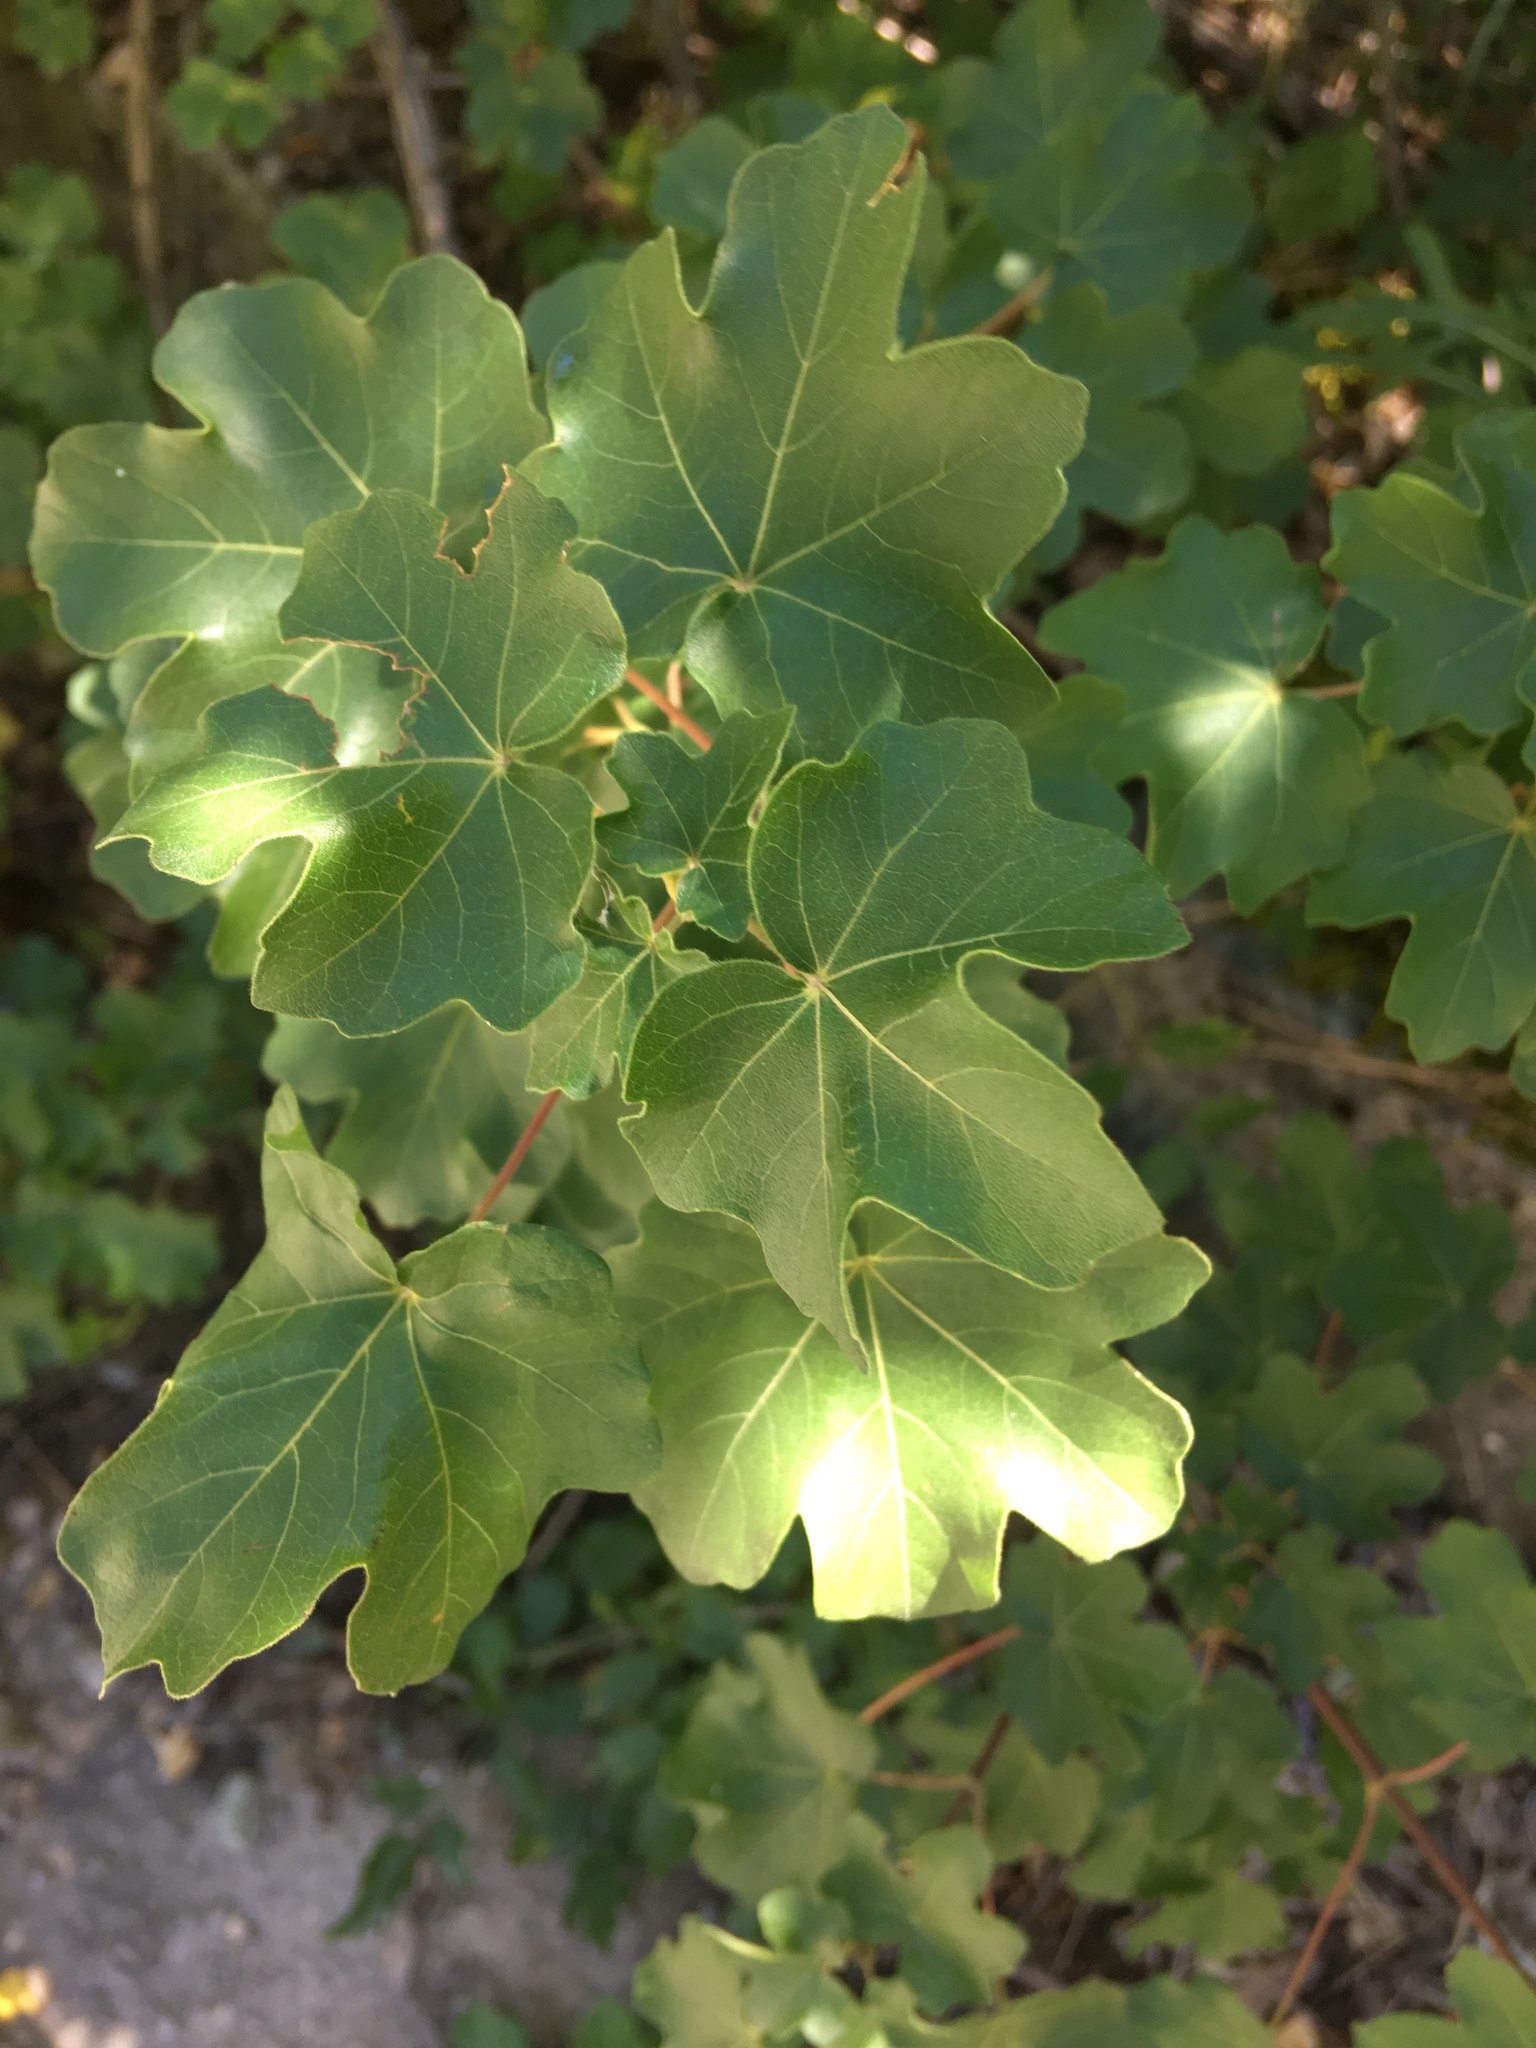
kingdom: Plantae
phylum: Tracheophyta
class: Magnoliopsida
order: Sapindales
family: Sapindaceae
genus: Acer
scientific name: Acer campestre
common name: Field maple
